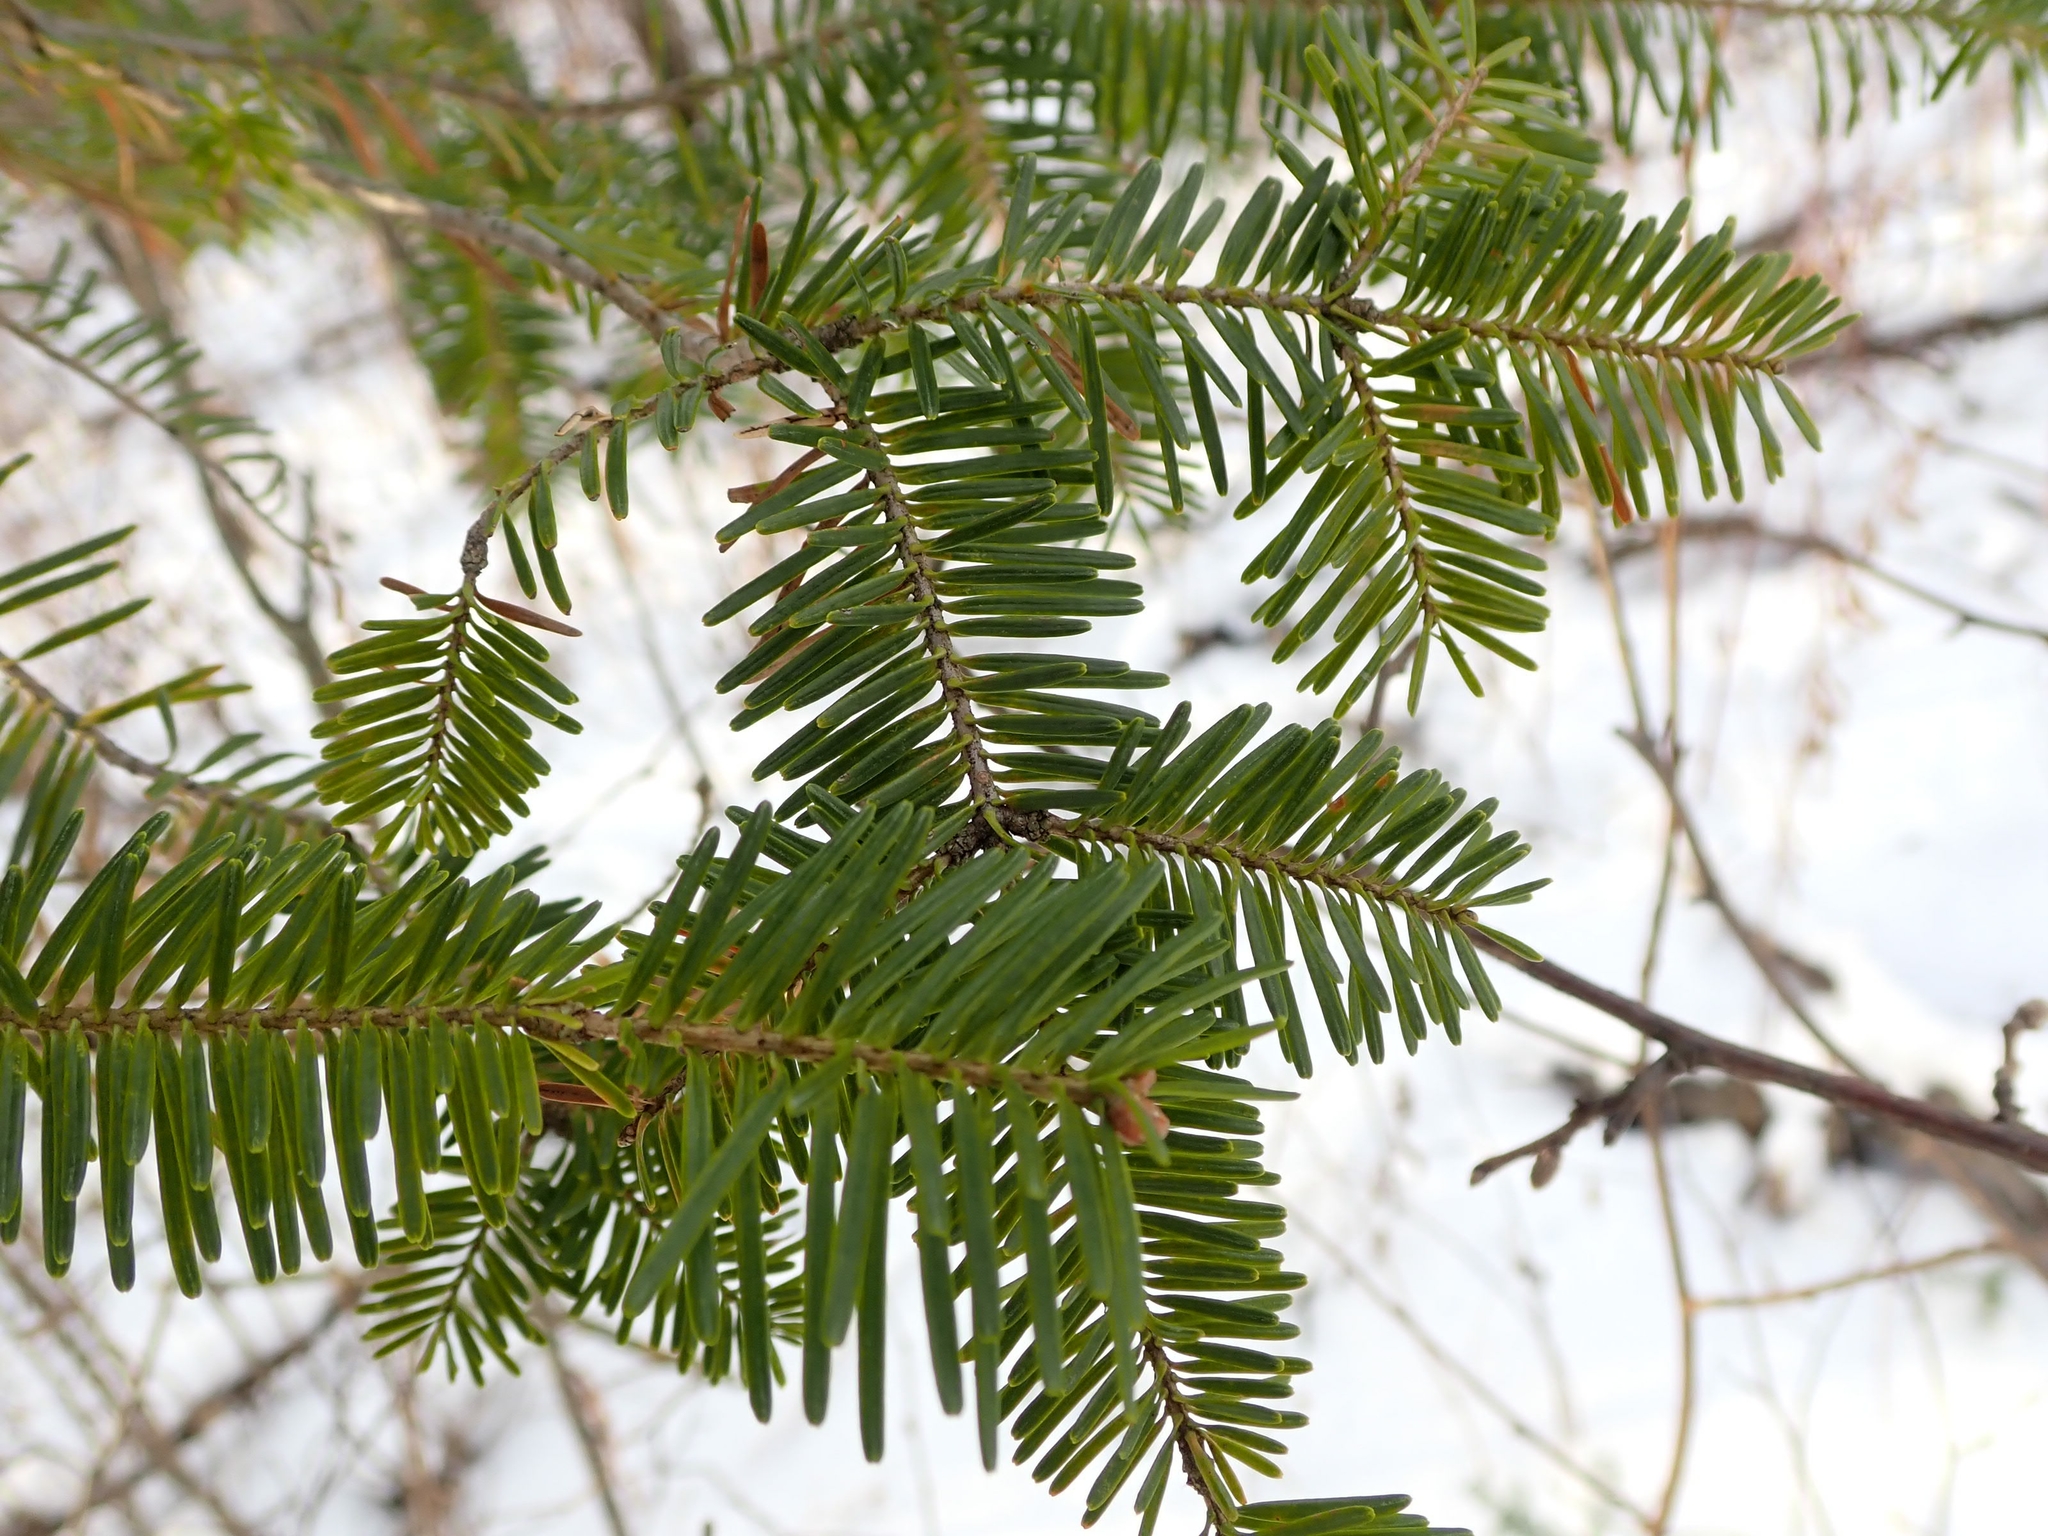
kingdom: Plantae
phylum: Tracheophyta
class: Pinopsida
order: Pinales
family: Pinaceae
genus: Abies
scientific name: Abies balsamea
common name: Balsam fir
